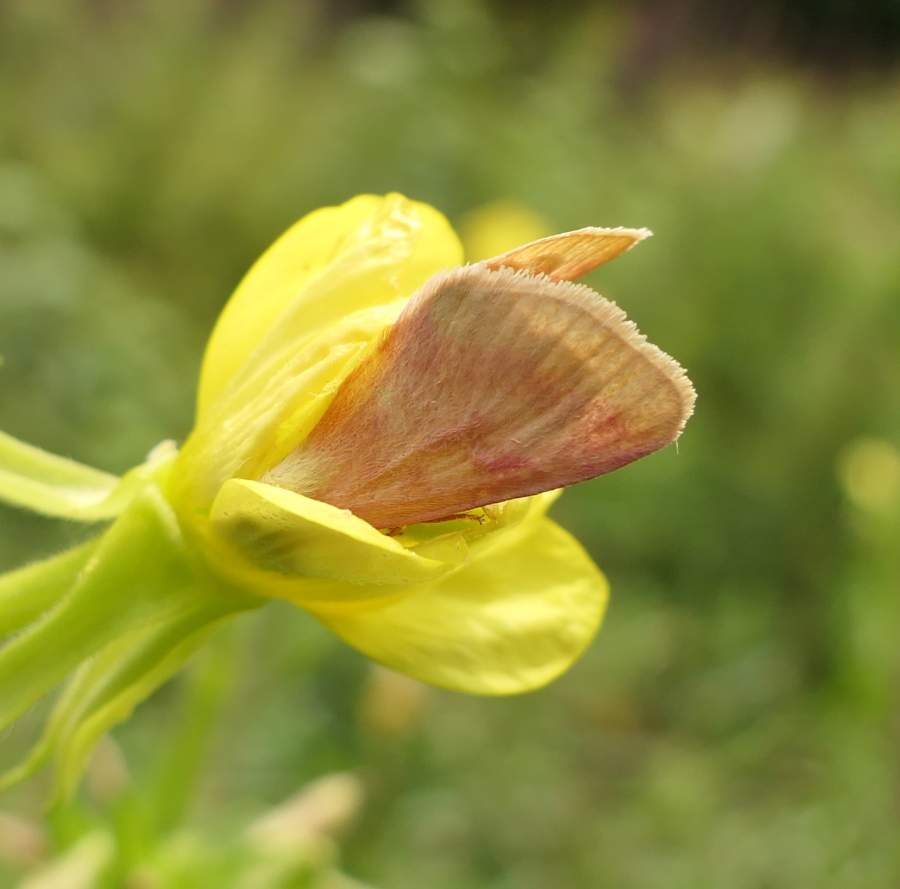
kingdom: Animalia
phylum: Arthropoda
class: Insecta
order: Lepidoptera
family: Noctuidae
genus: Schinia
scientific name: Schinia florida
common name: Primrose moth
